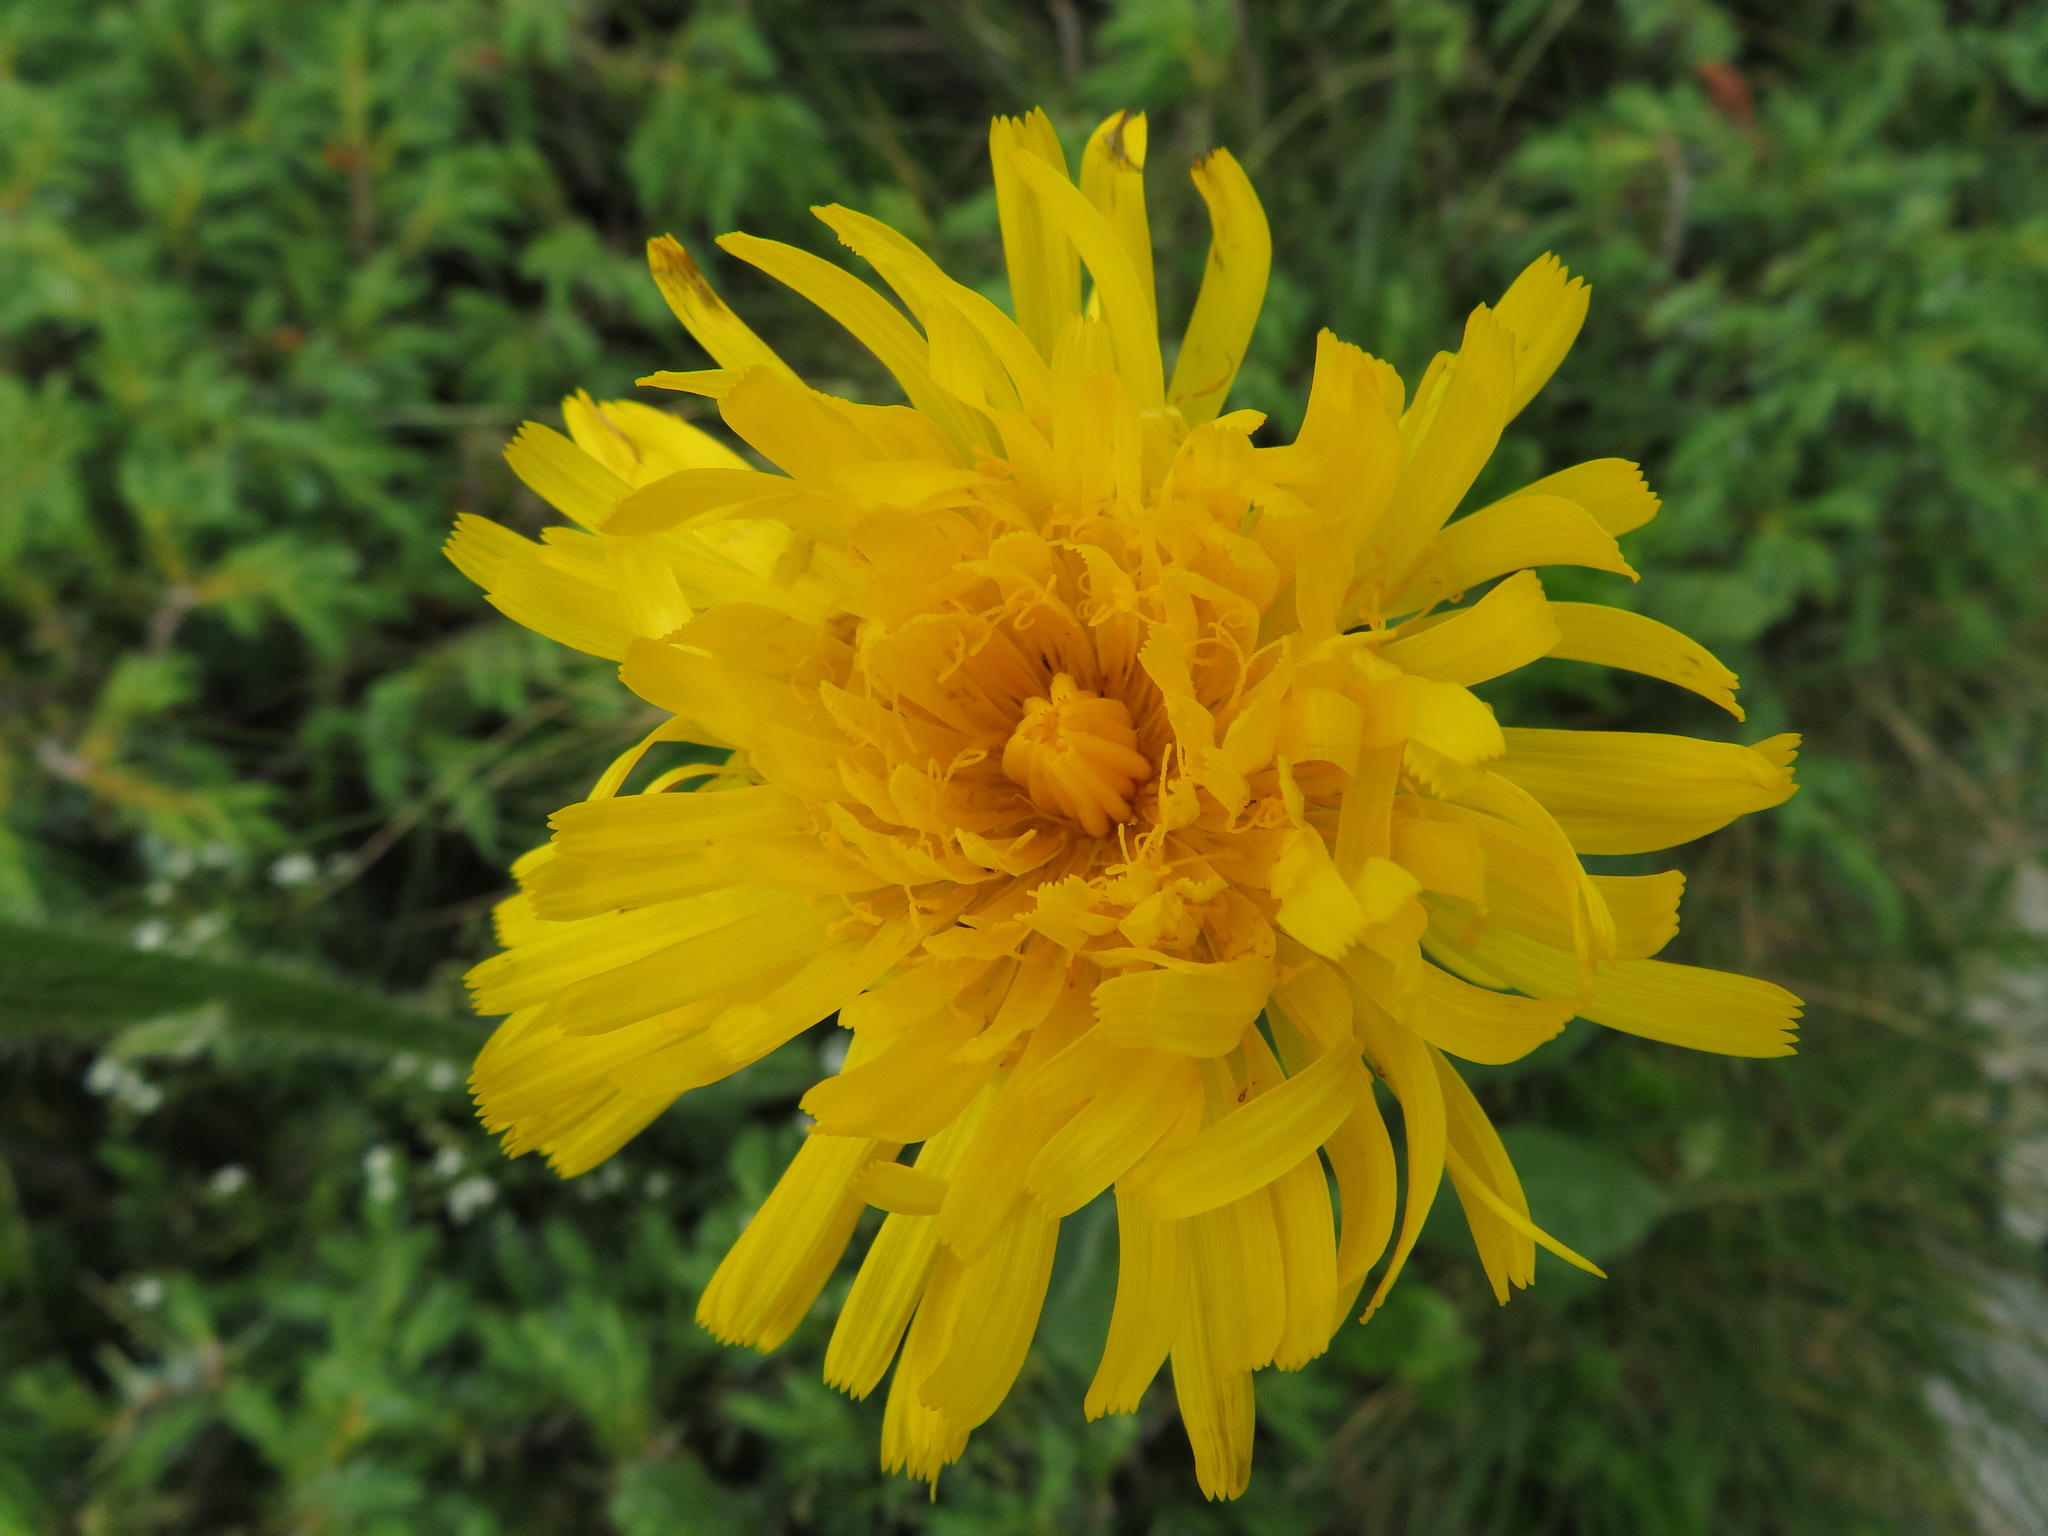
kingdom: Plantae
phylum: Tracheophyta
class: Magnoliopsida
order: Asterales
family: Asteraceae
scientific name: Asteraceae
